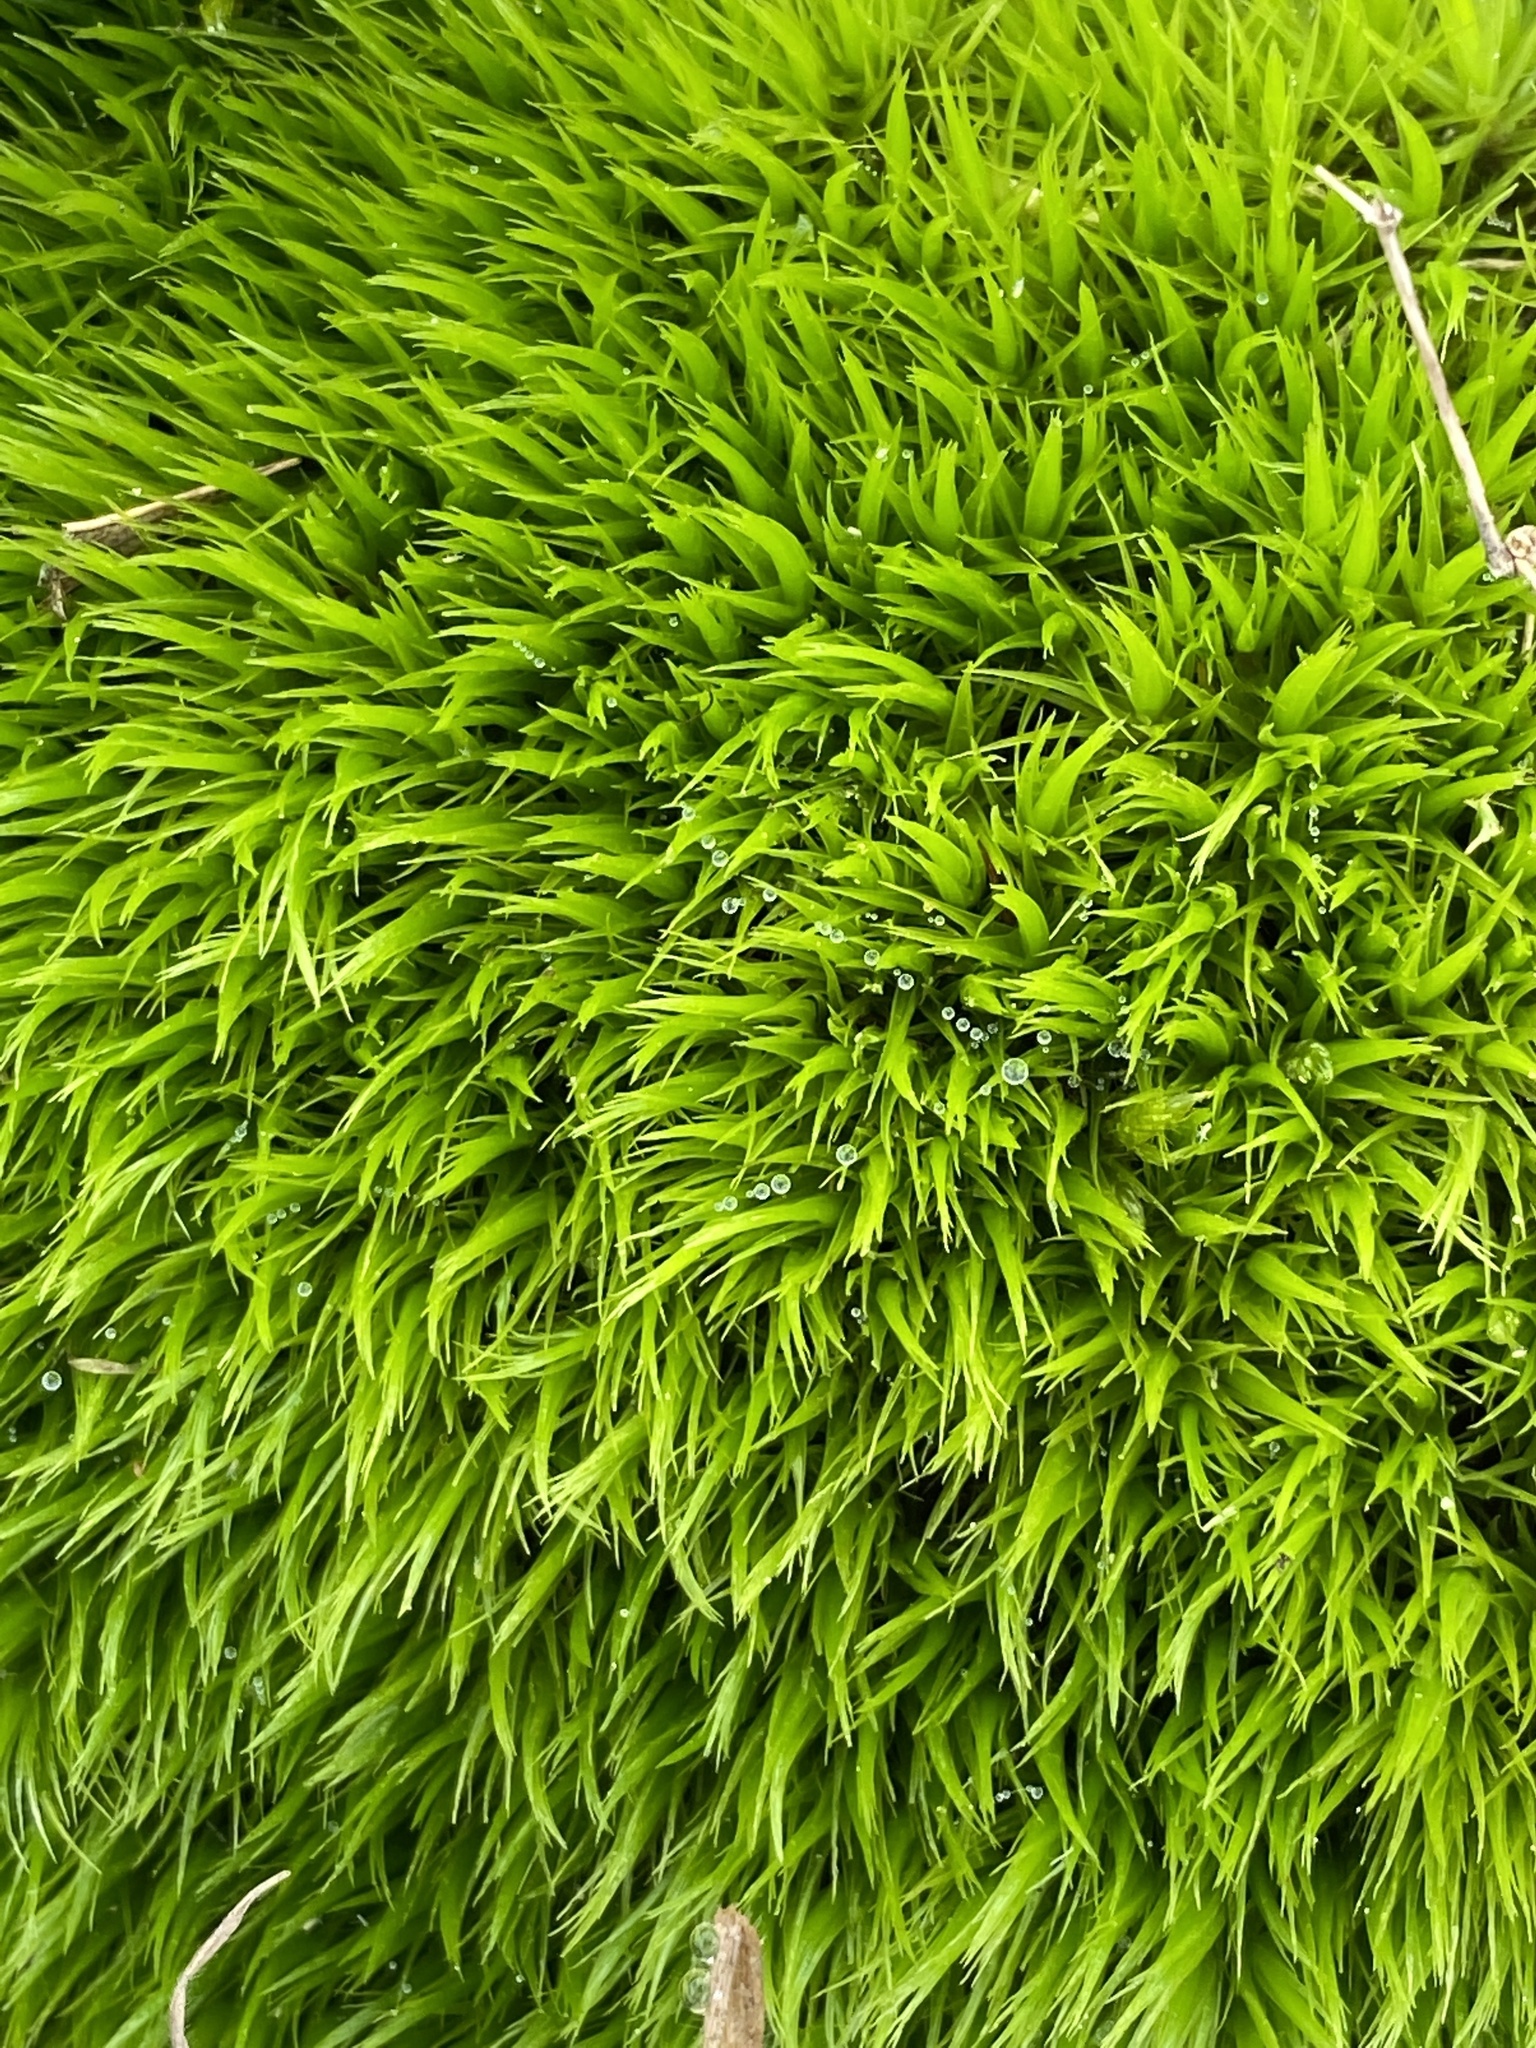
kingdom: Plantae
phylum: Bryophyta
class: Bryopsida
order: Dicranales
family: Dicranaceae
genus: Dicranum
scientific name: Dicranum scoparium
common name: Broom fork-moss
